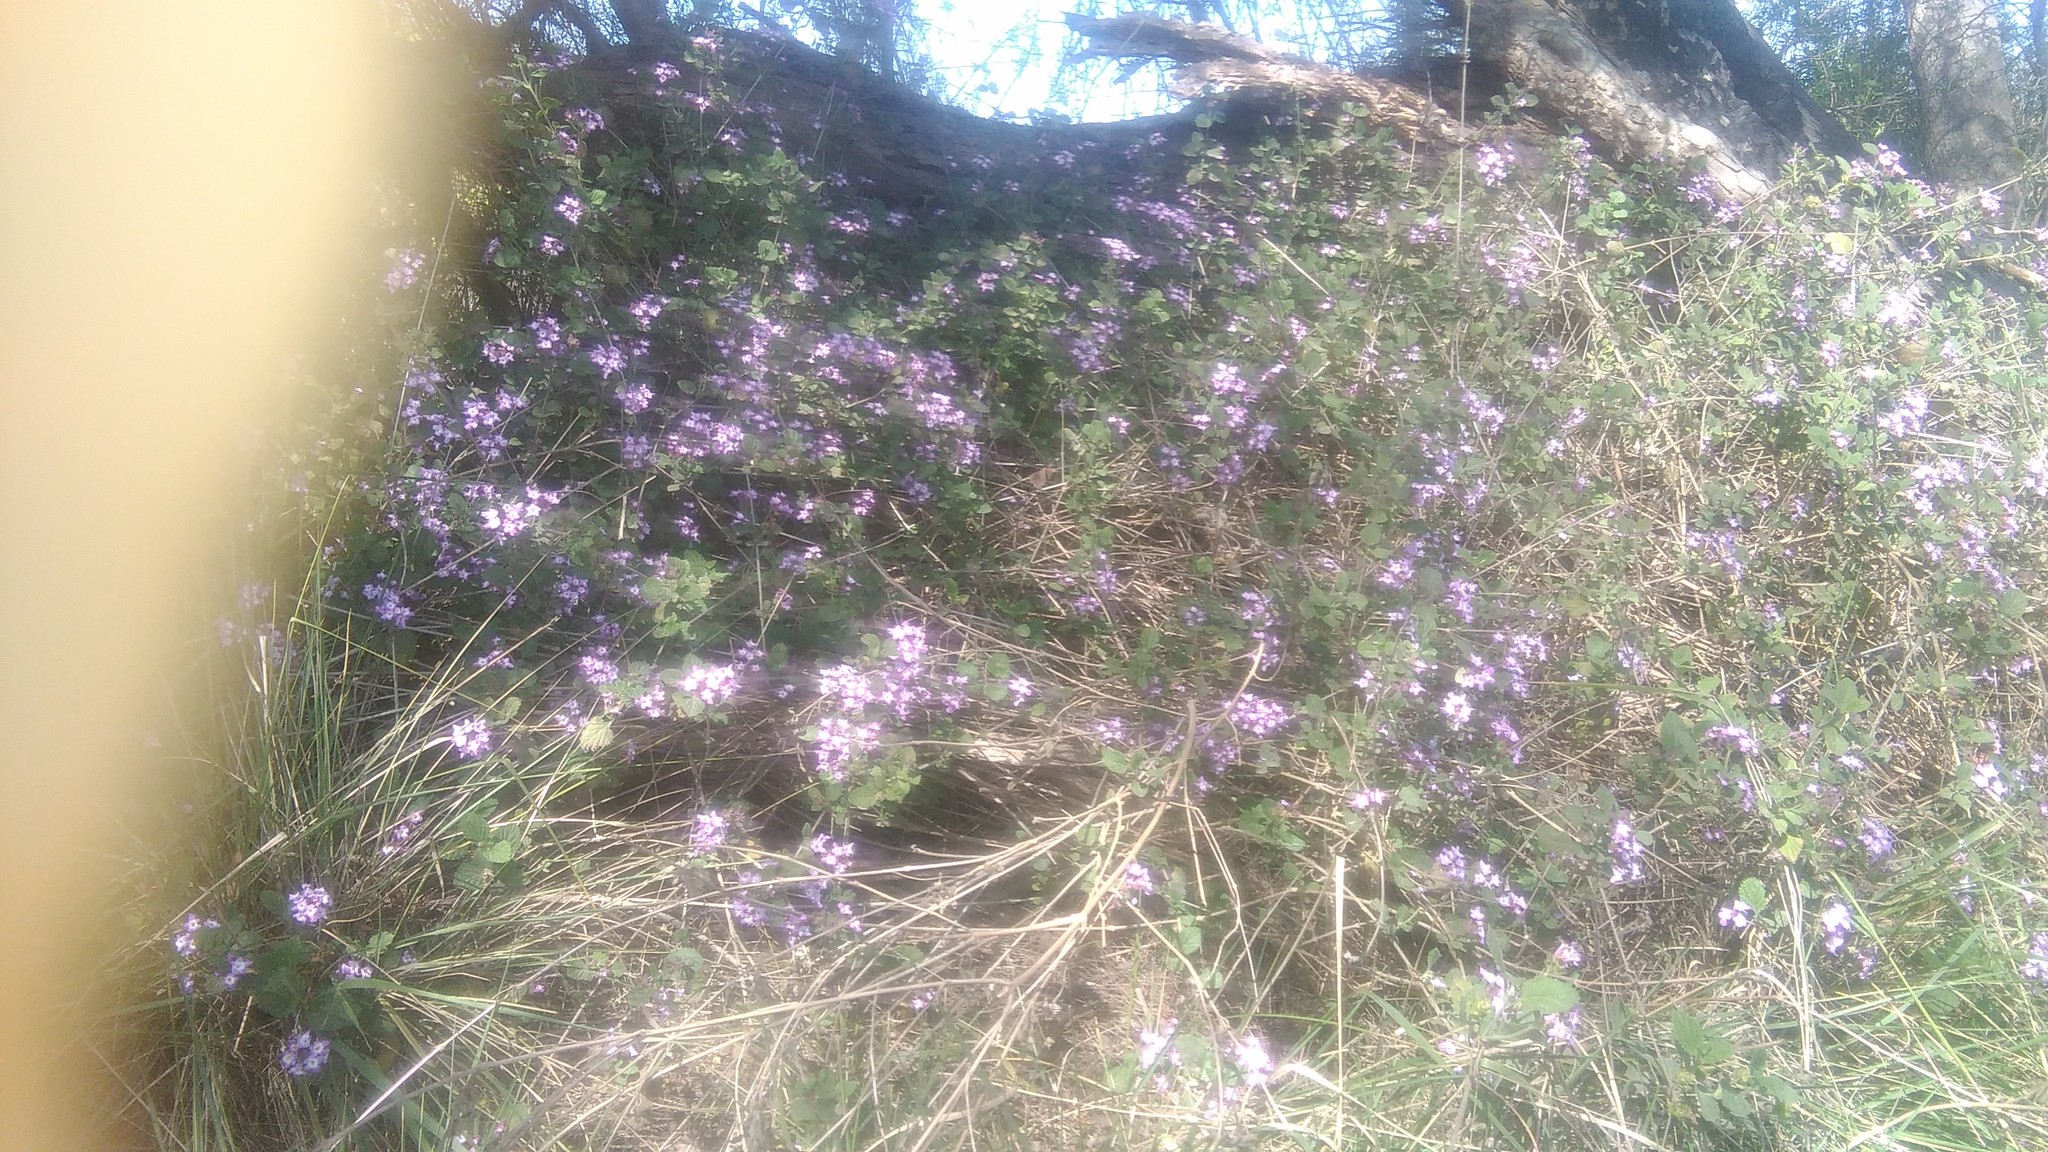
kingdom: Plantae
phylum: Tracheophyta
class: Magnoliopsida
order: Lamiales
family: Verbenaceae
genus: Lantana
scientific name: Lantana megapotamica
